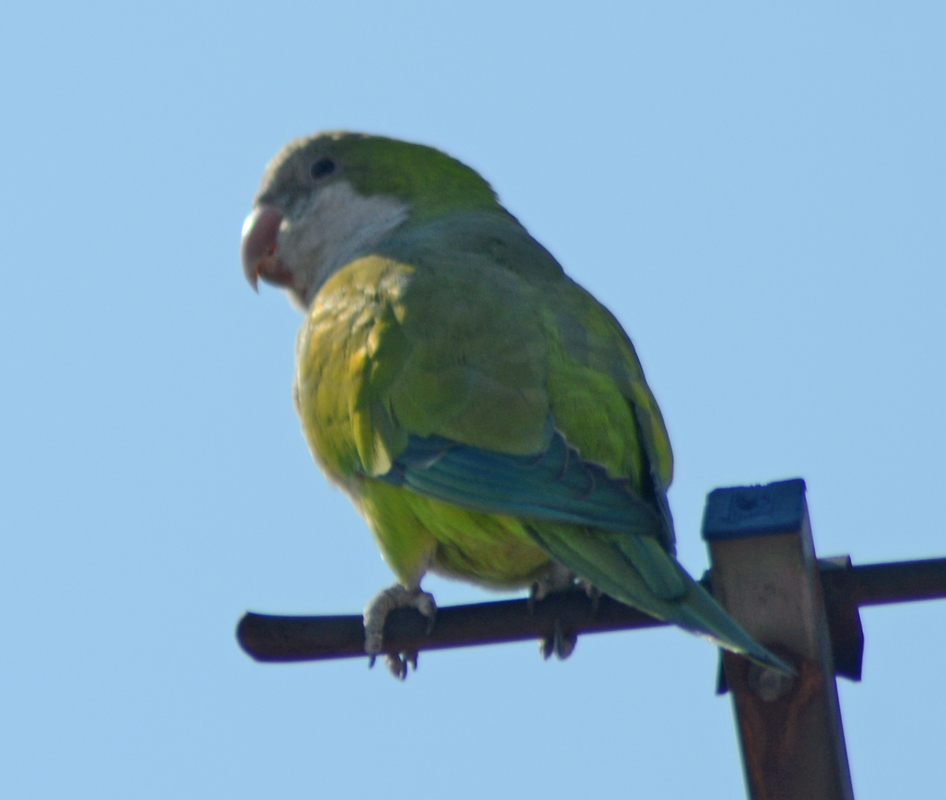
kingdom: Animalia
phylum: Chordata
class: Aves
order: Psittaciformes
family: Psittacidae
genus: Myiopsitta
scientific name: Myiopsitta monachus
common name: Monk parakeet
